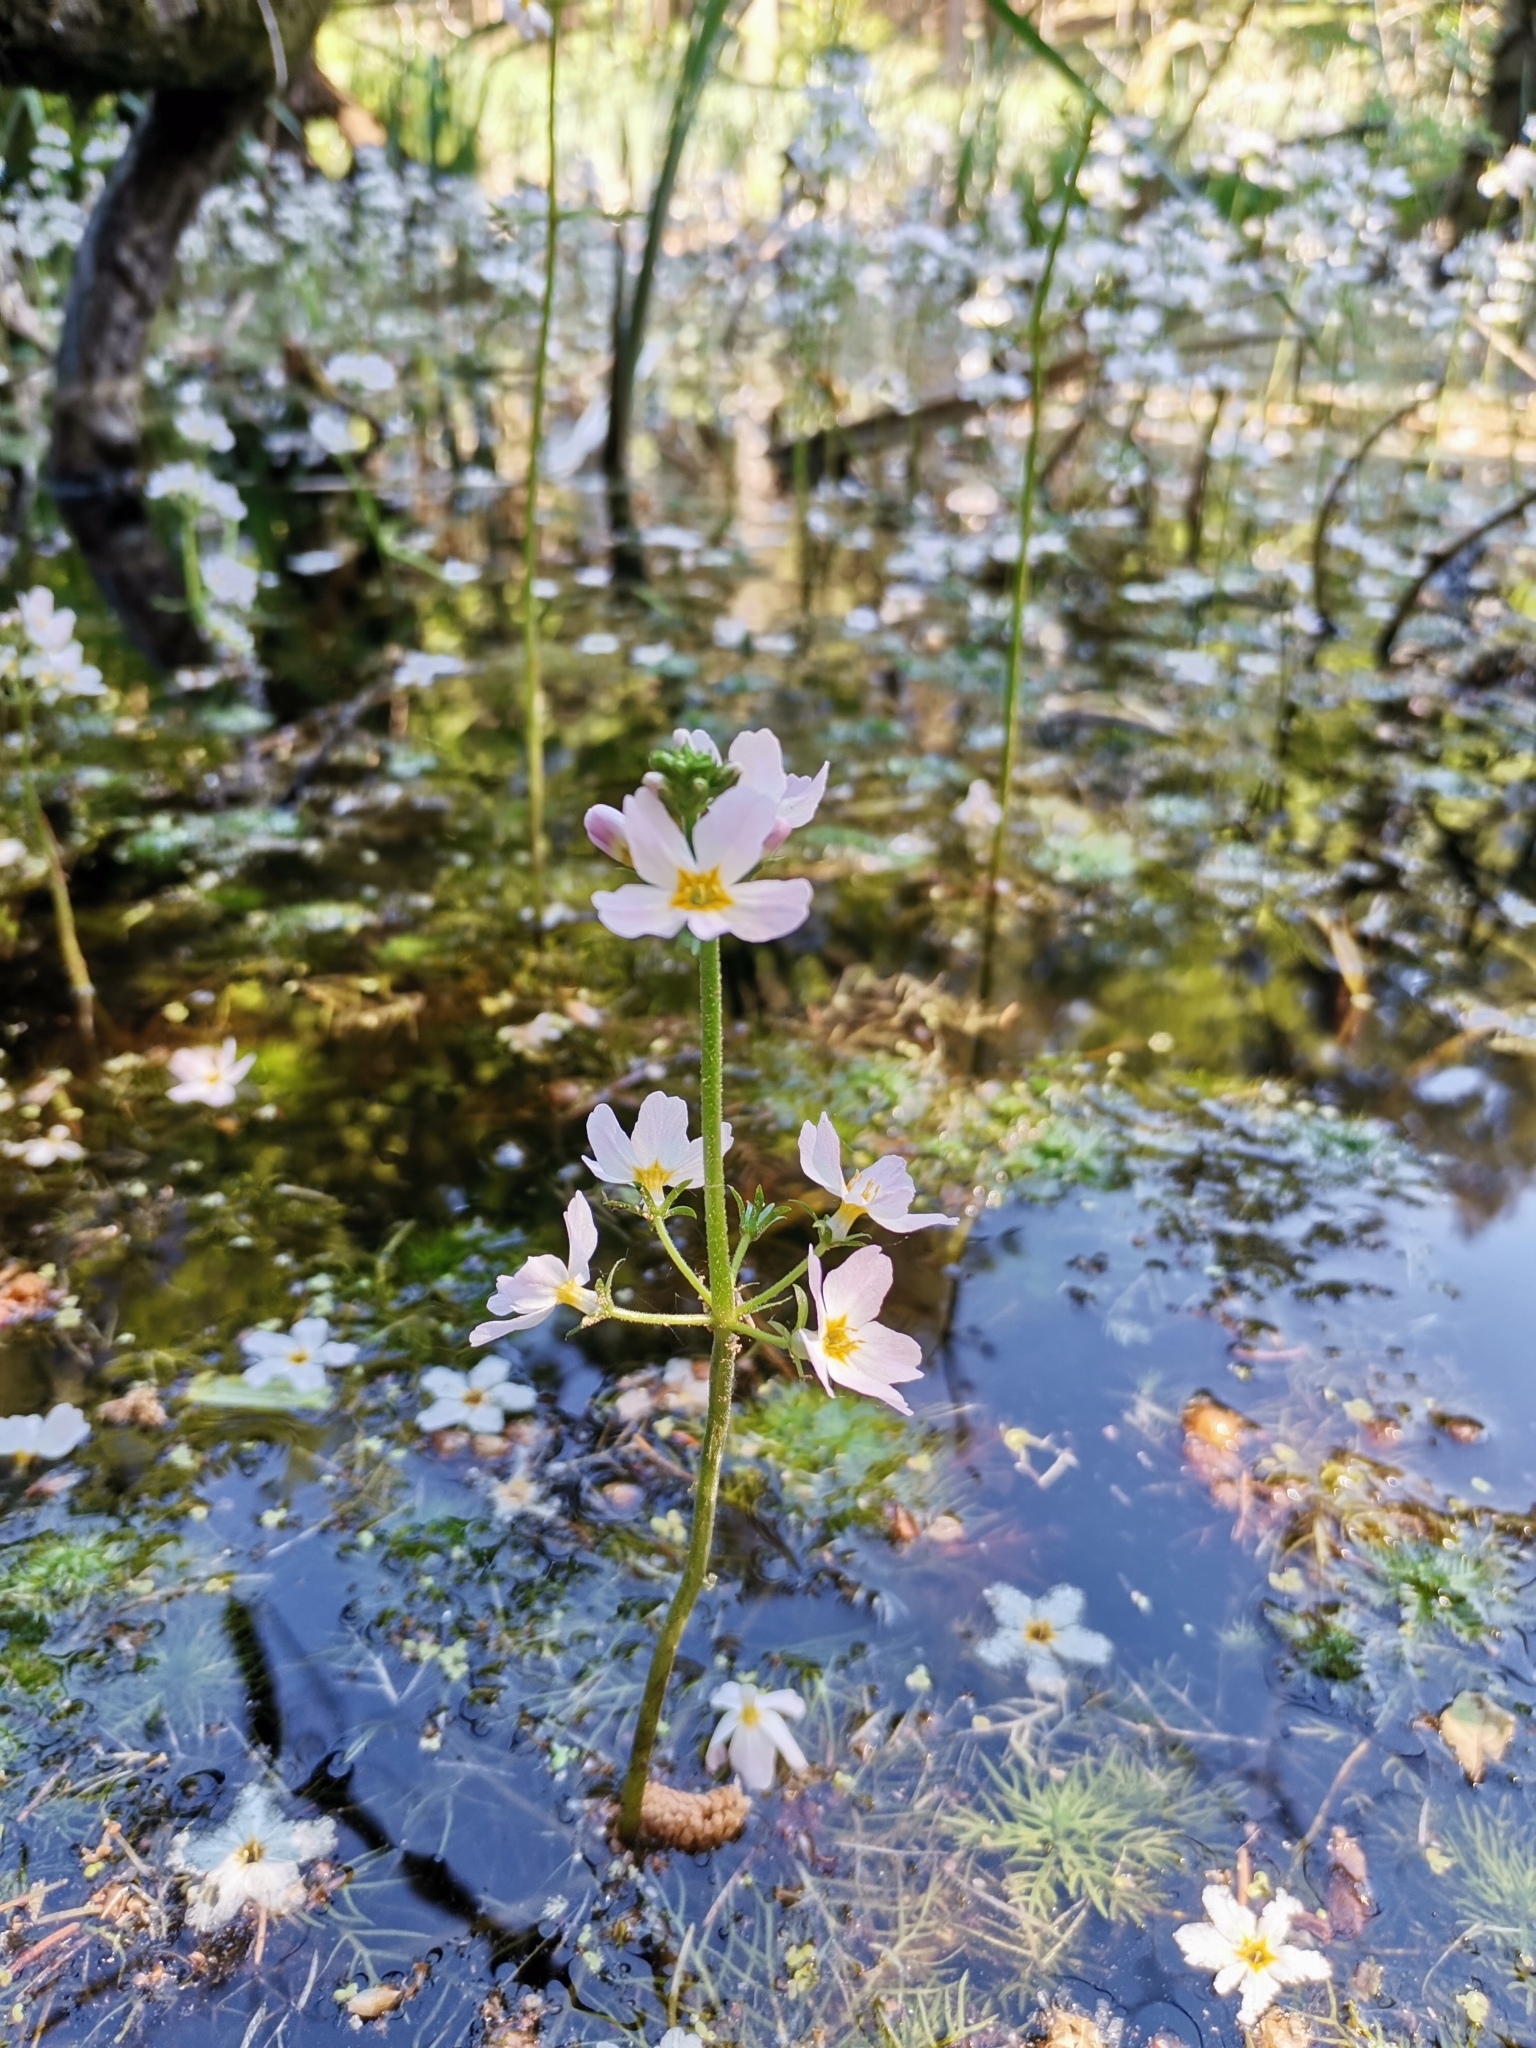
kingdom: Plantae
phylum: Tracheophyta
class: Magnoliopsida
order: Ericales
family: Primulaceae
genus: Hottonia
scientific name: Hottonia palustris
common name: Water-violet
